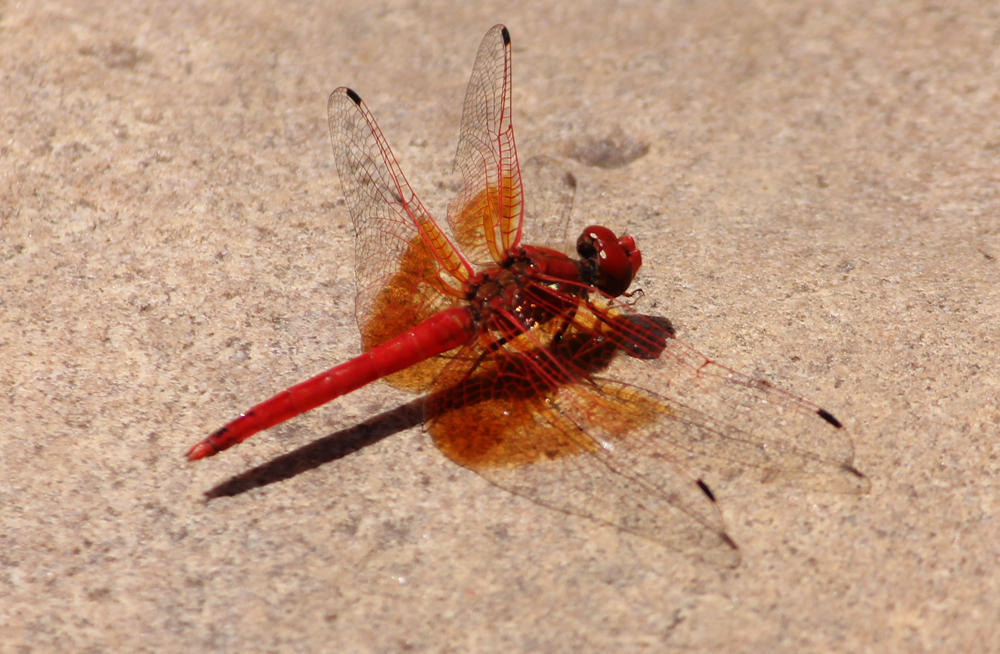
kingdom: Animalia
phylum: Arthropoda
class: Insecta
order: Odonata
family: Libellulidae
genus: Trithemis
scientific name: Trithemis kirbyi
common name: Kirby's dropwing
